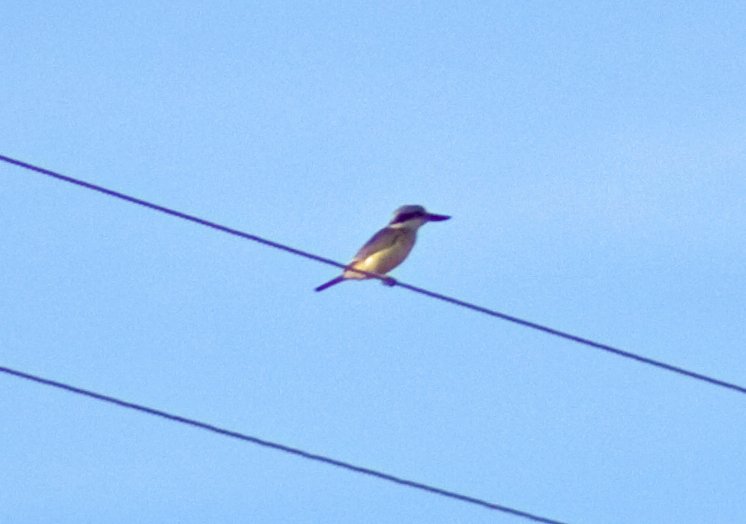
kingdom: Animalia
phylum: Chordata
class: Aves
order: Coraciiformes
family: Alcedinidae
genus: Todiramphus
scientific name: Todiramphus pyrrhopygius
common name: Red-backed kingfisher
